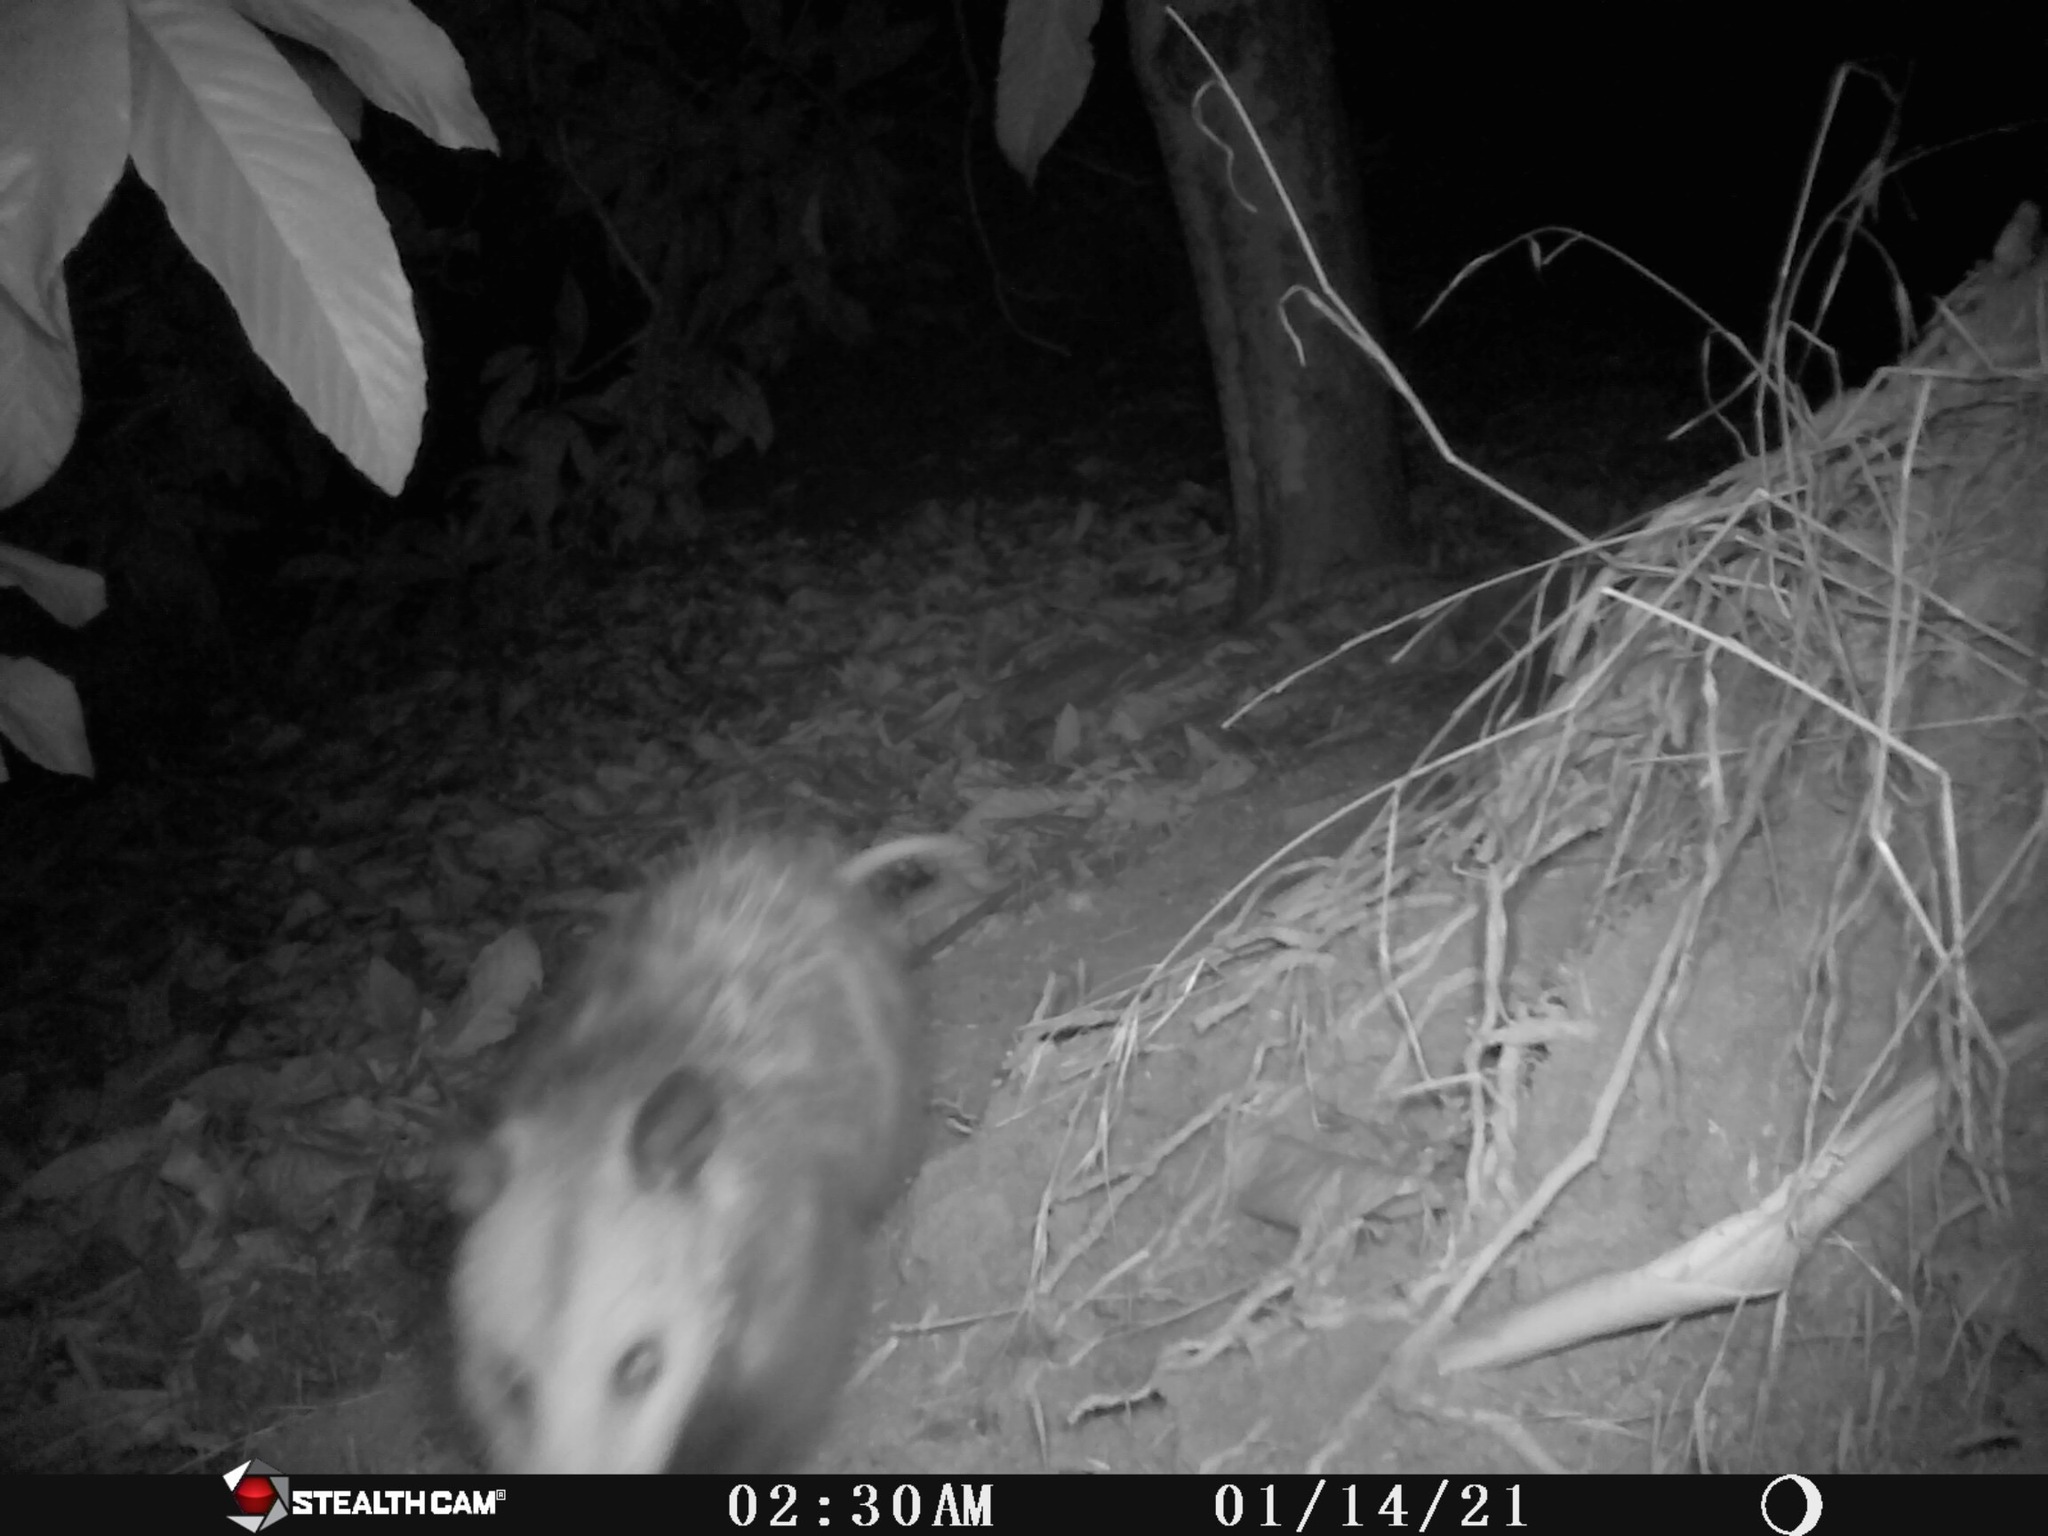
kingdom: Animalia
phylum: Chordata
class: Mammalia
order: Didelphimorphia
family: Didelphidae
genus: Didelphis
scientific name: Didelphis virginiana
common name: Virginia opossum
